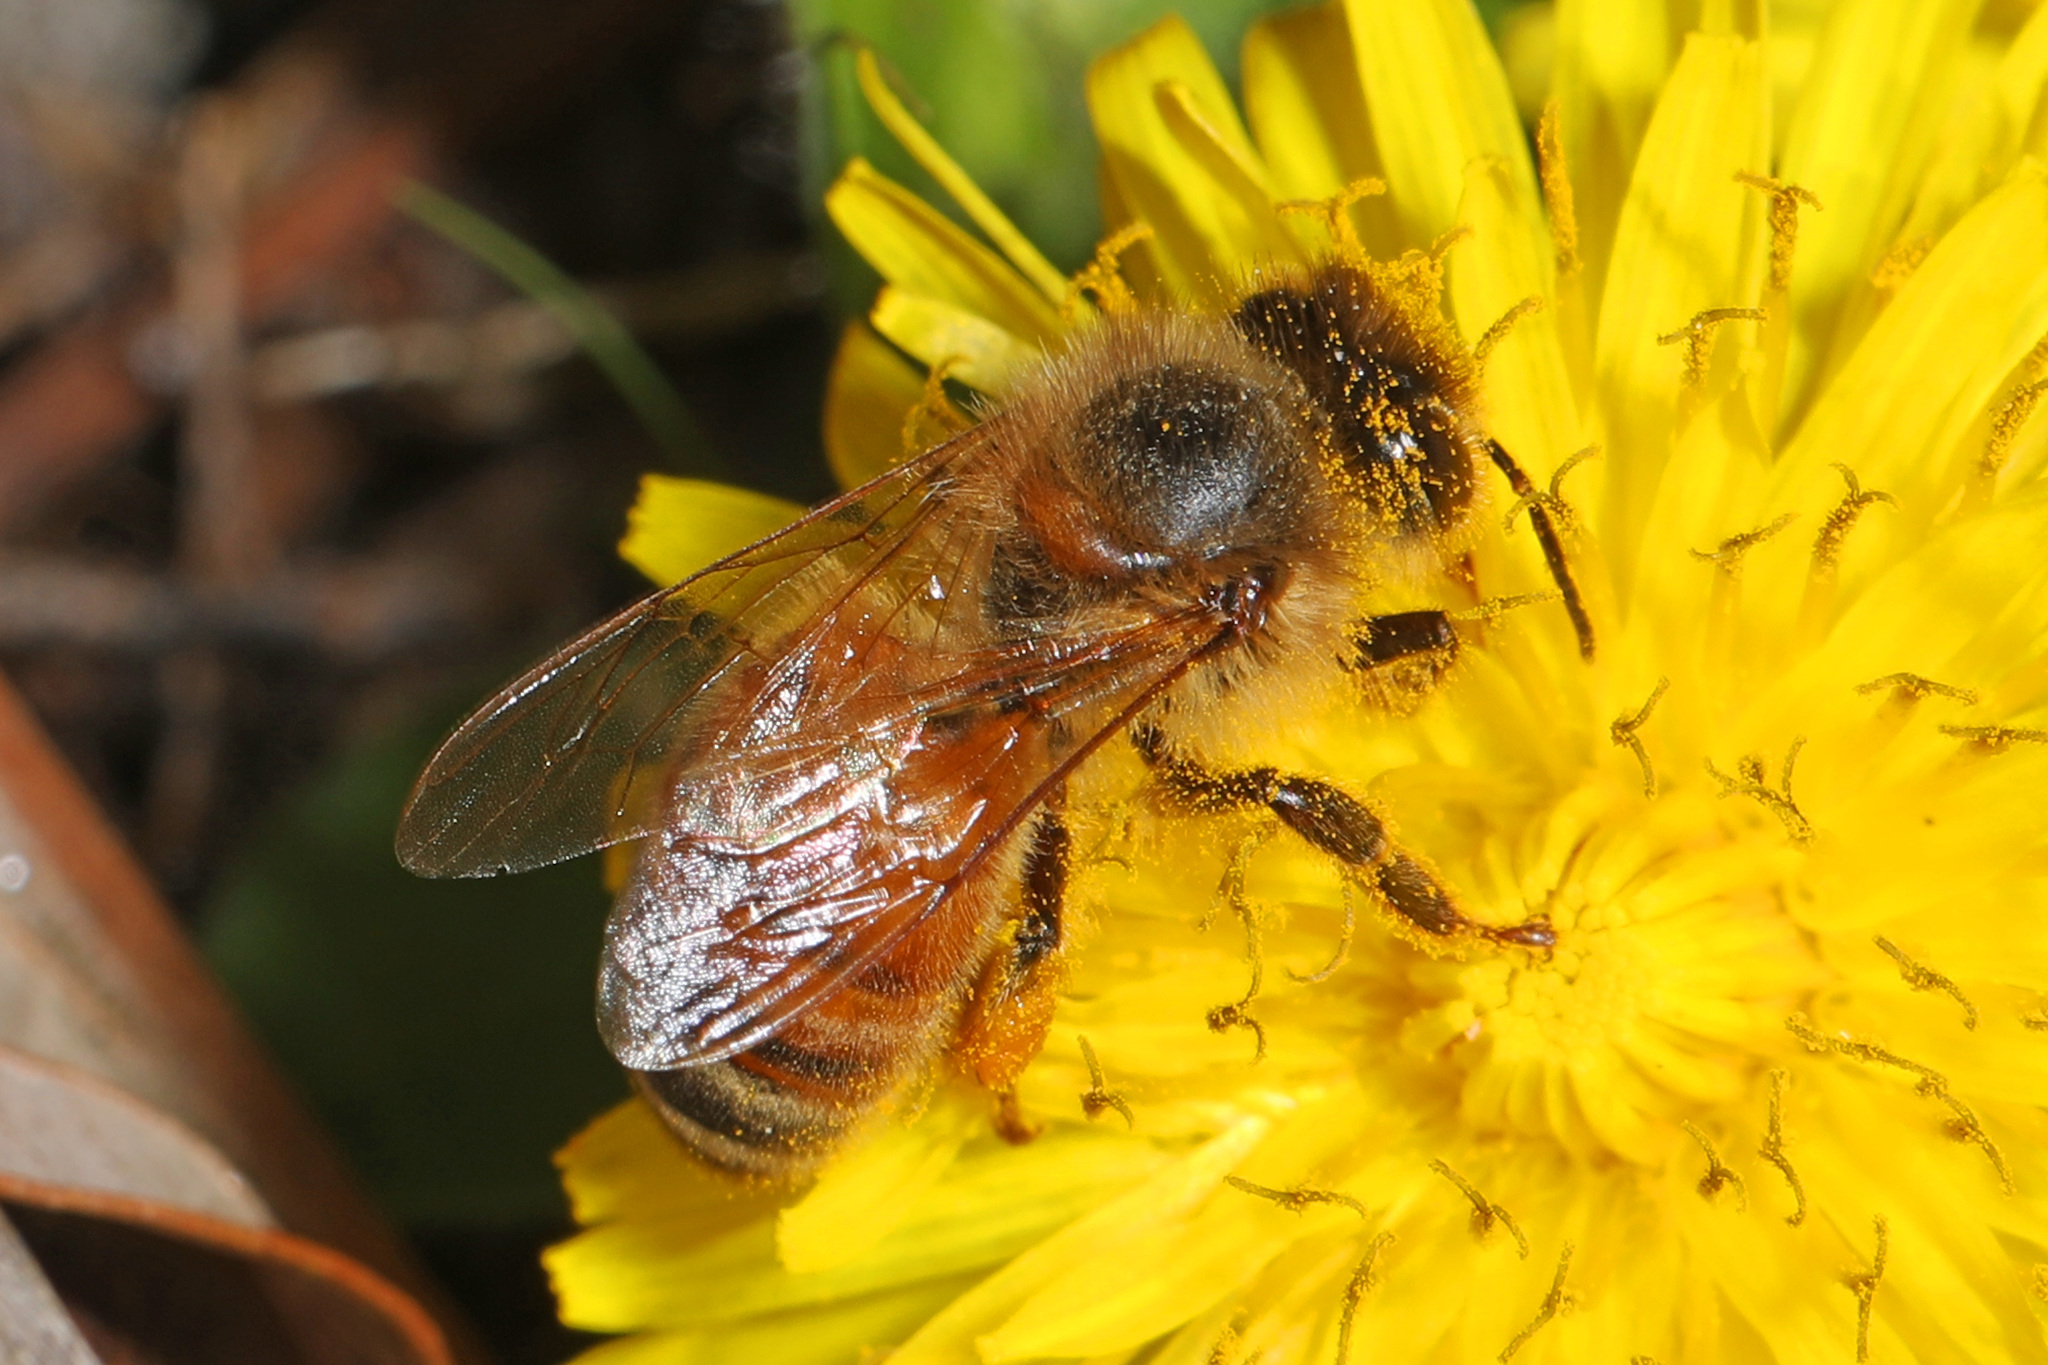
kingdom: Animalia
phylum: Arthropoda
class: Insecta
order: Hymenoptera
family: Apidae
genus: Apis
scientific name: Apis mellifera
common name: Honey bee
